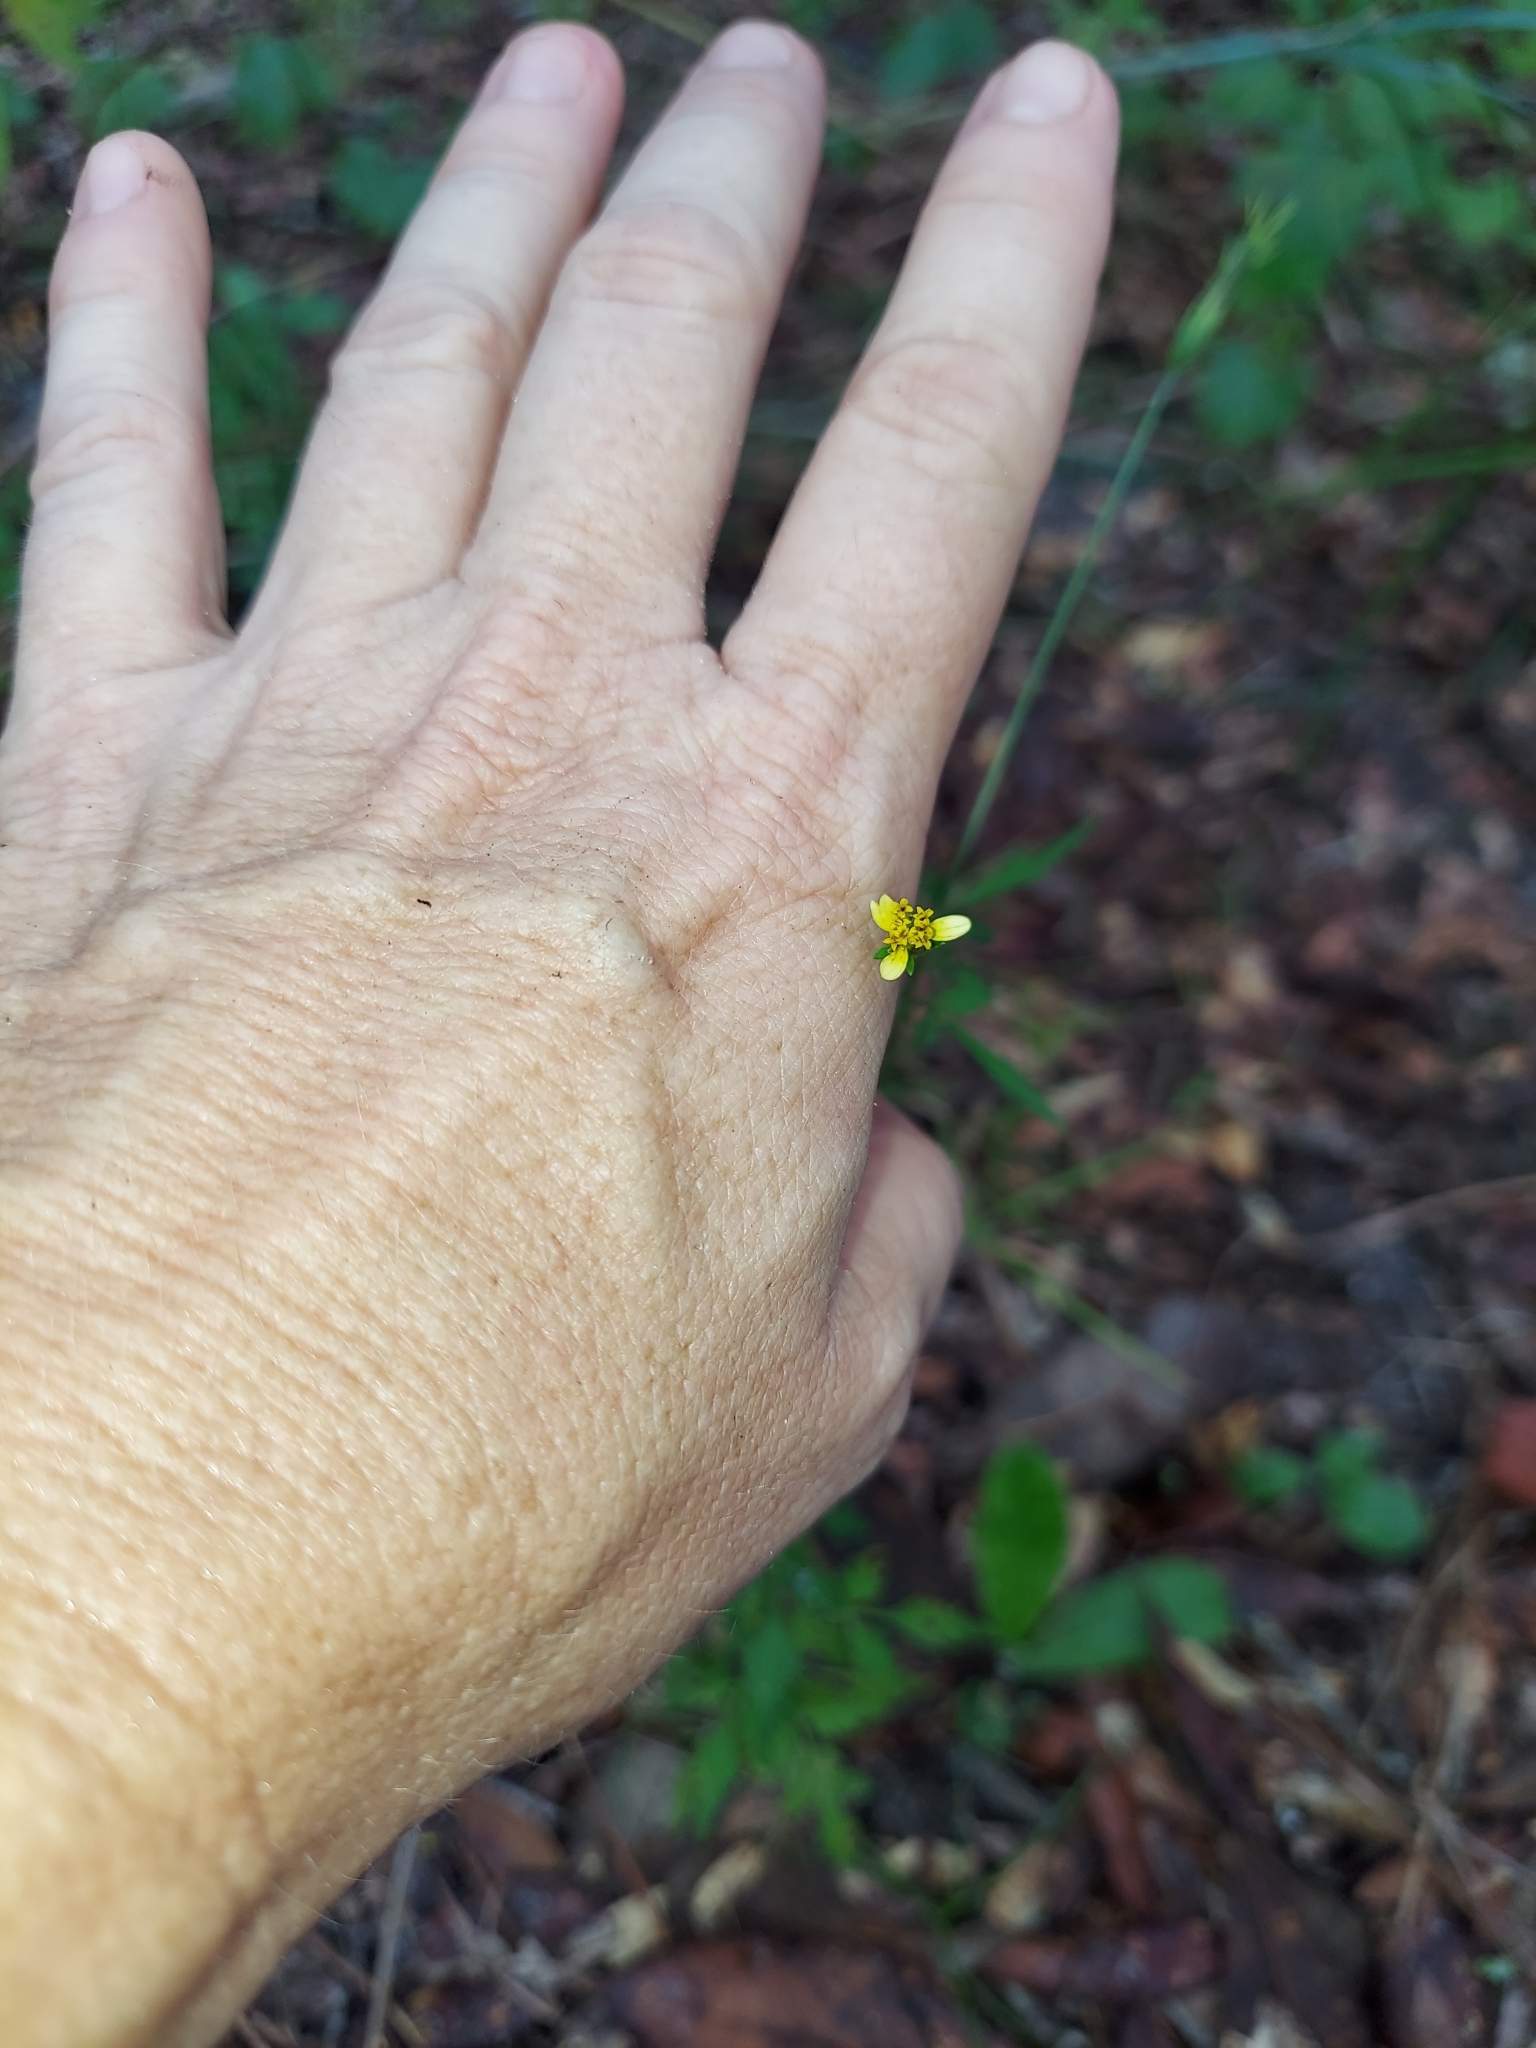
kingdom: Plantae
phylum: Tracheophyta
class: Magnoliopsida
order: Asterales
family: Asteraceae
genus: Bidens
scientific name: Bidens bipinnata
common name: Spanish-needles
